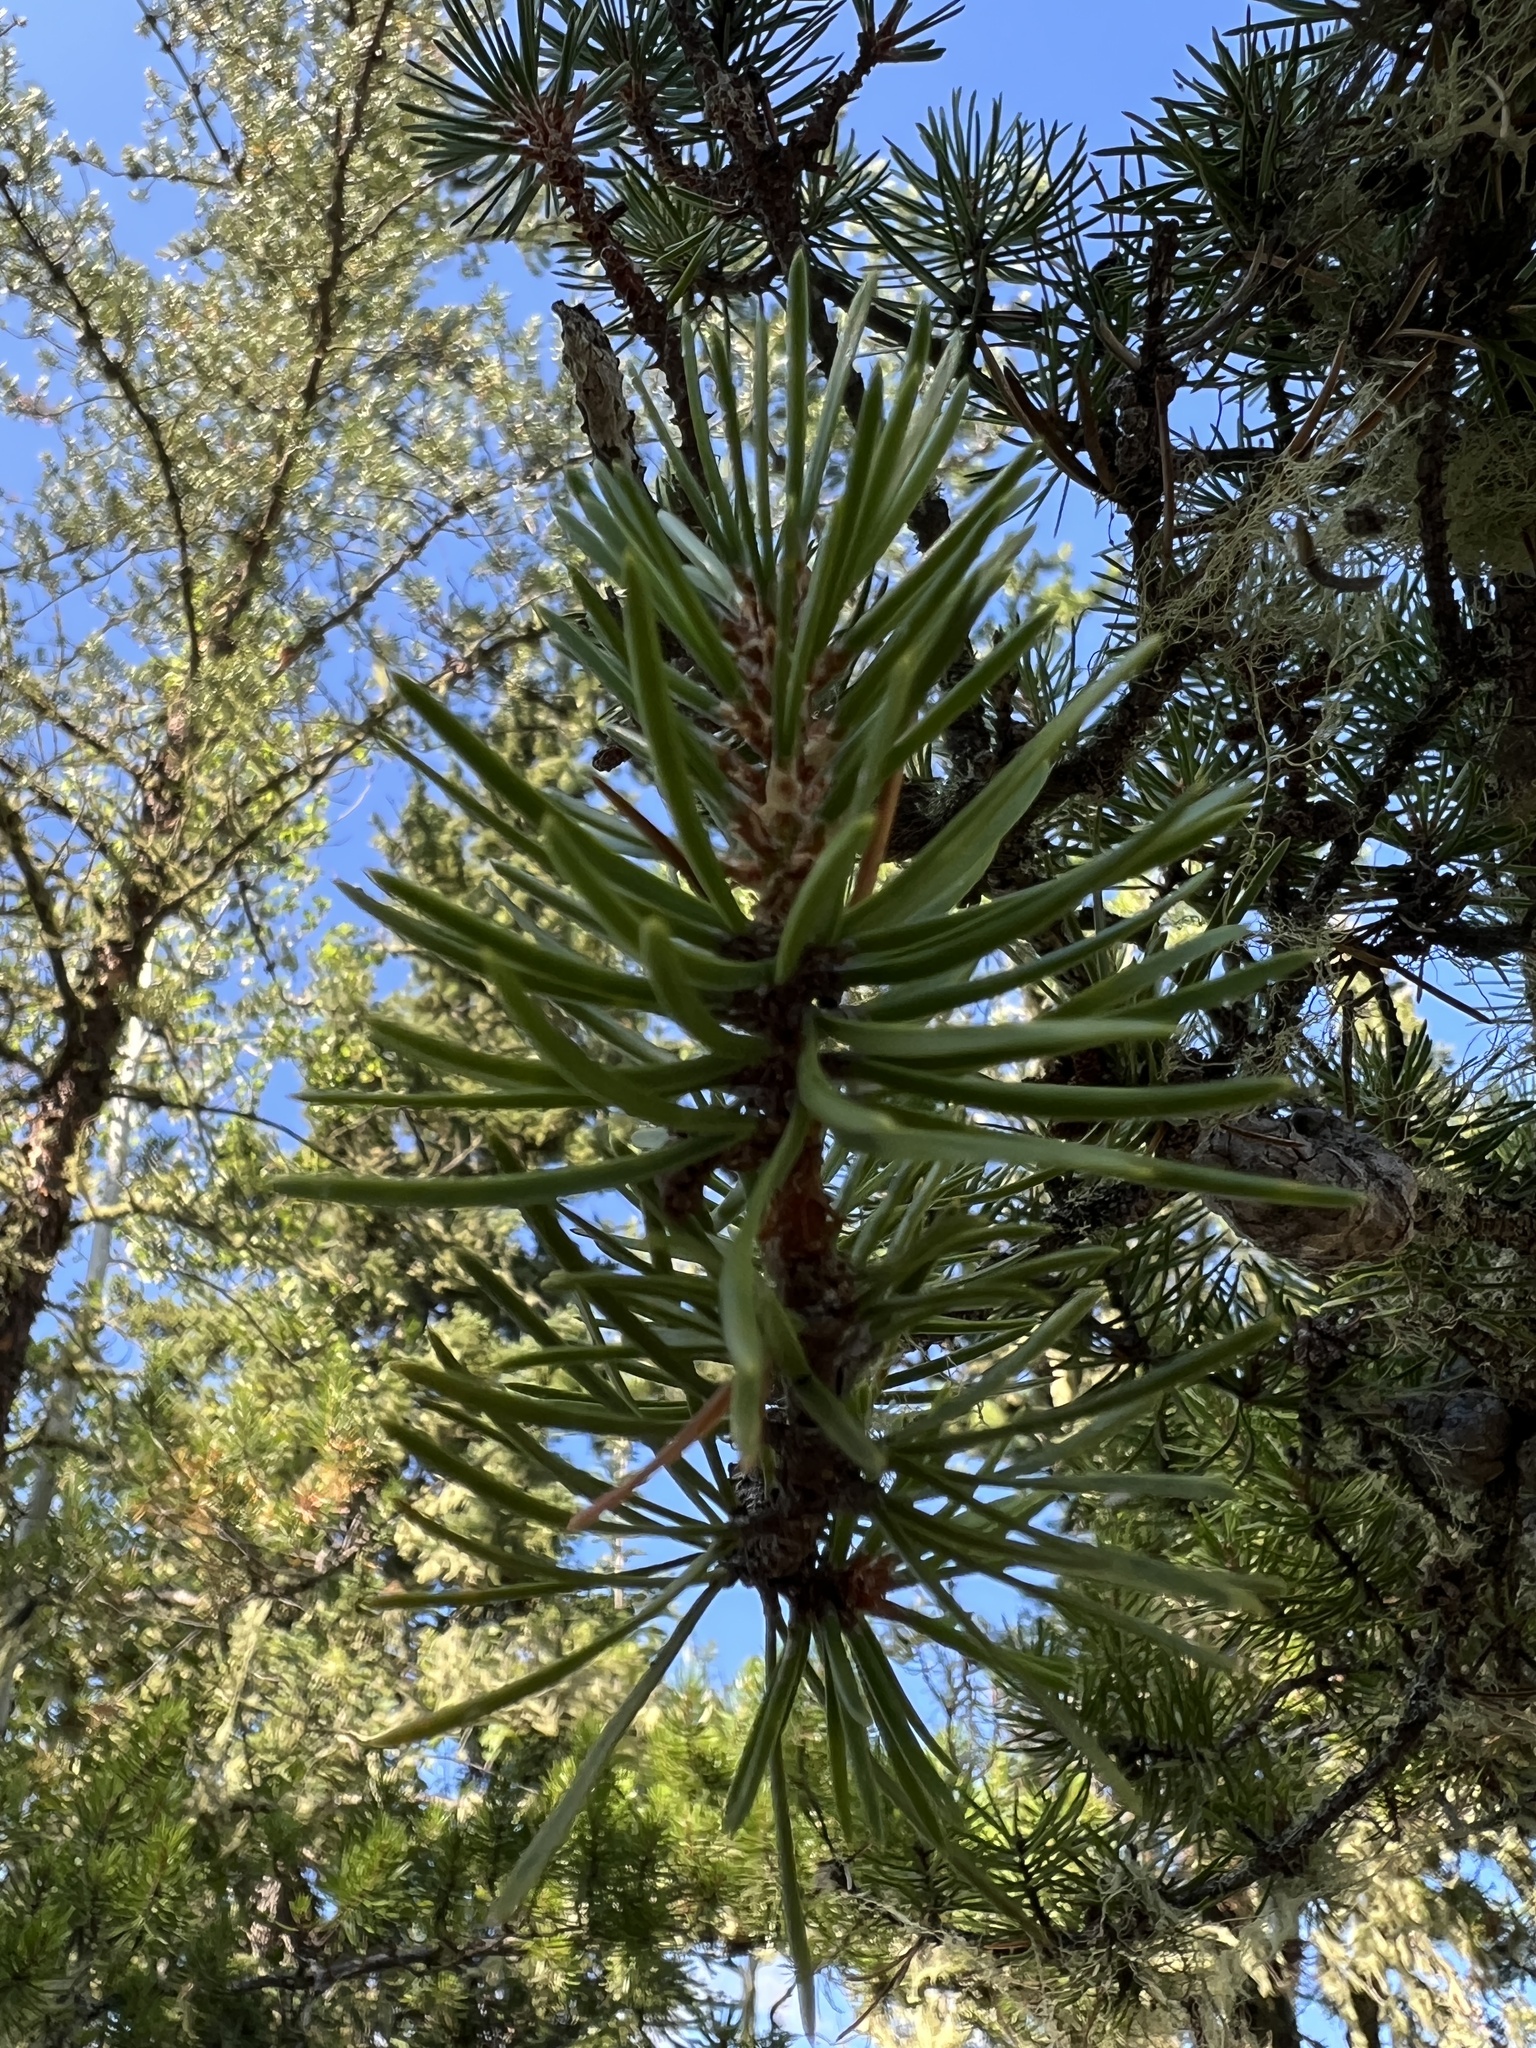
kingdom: Plantae
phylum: Tracheophyta
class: Pinopsida
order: Pinales
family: Pinaceae
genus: Pinus
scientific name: Pinus banksiana
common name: Jack pine
